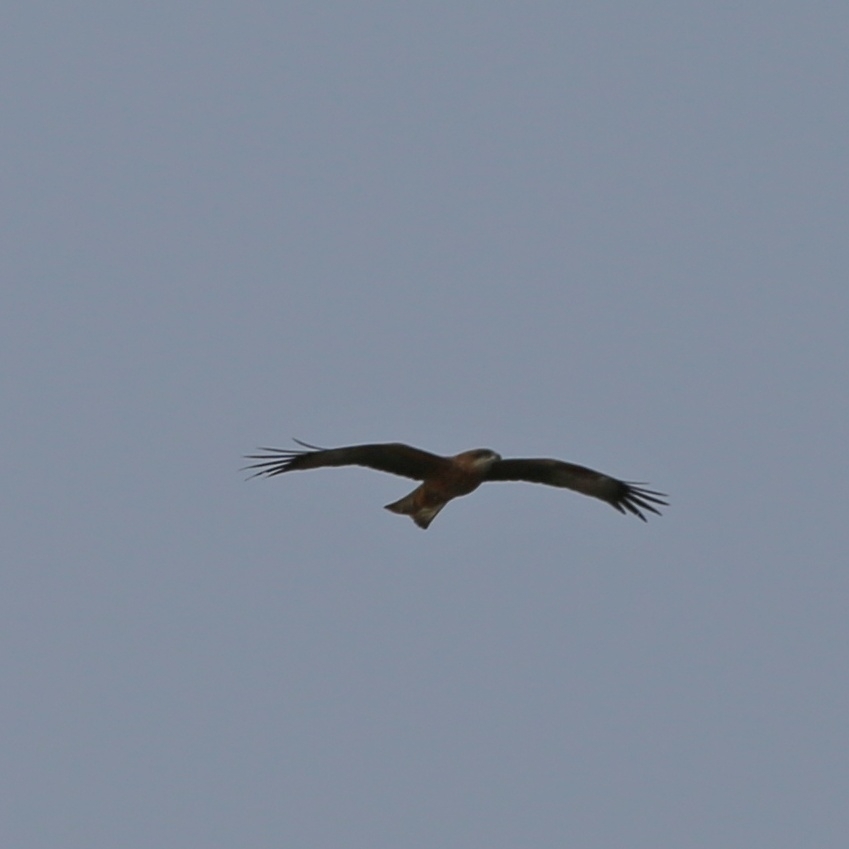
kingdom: Animalia
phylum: Chordata
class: Aves
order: Accipitriformes
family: Accipitridae
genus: Milvus
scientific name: Milvus migrans
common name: Black kite
